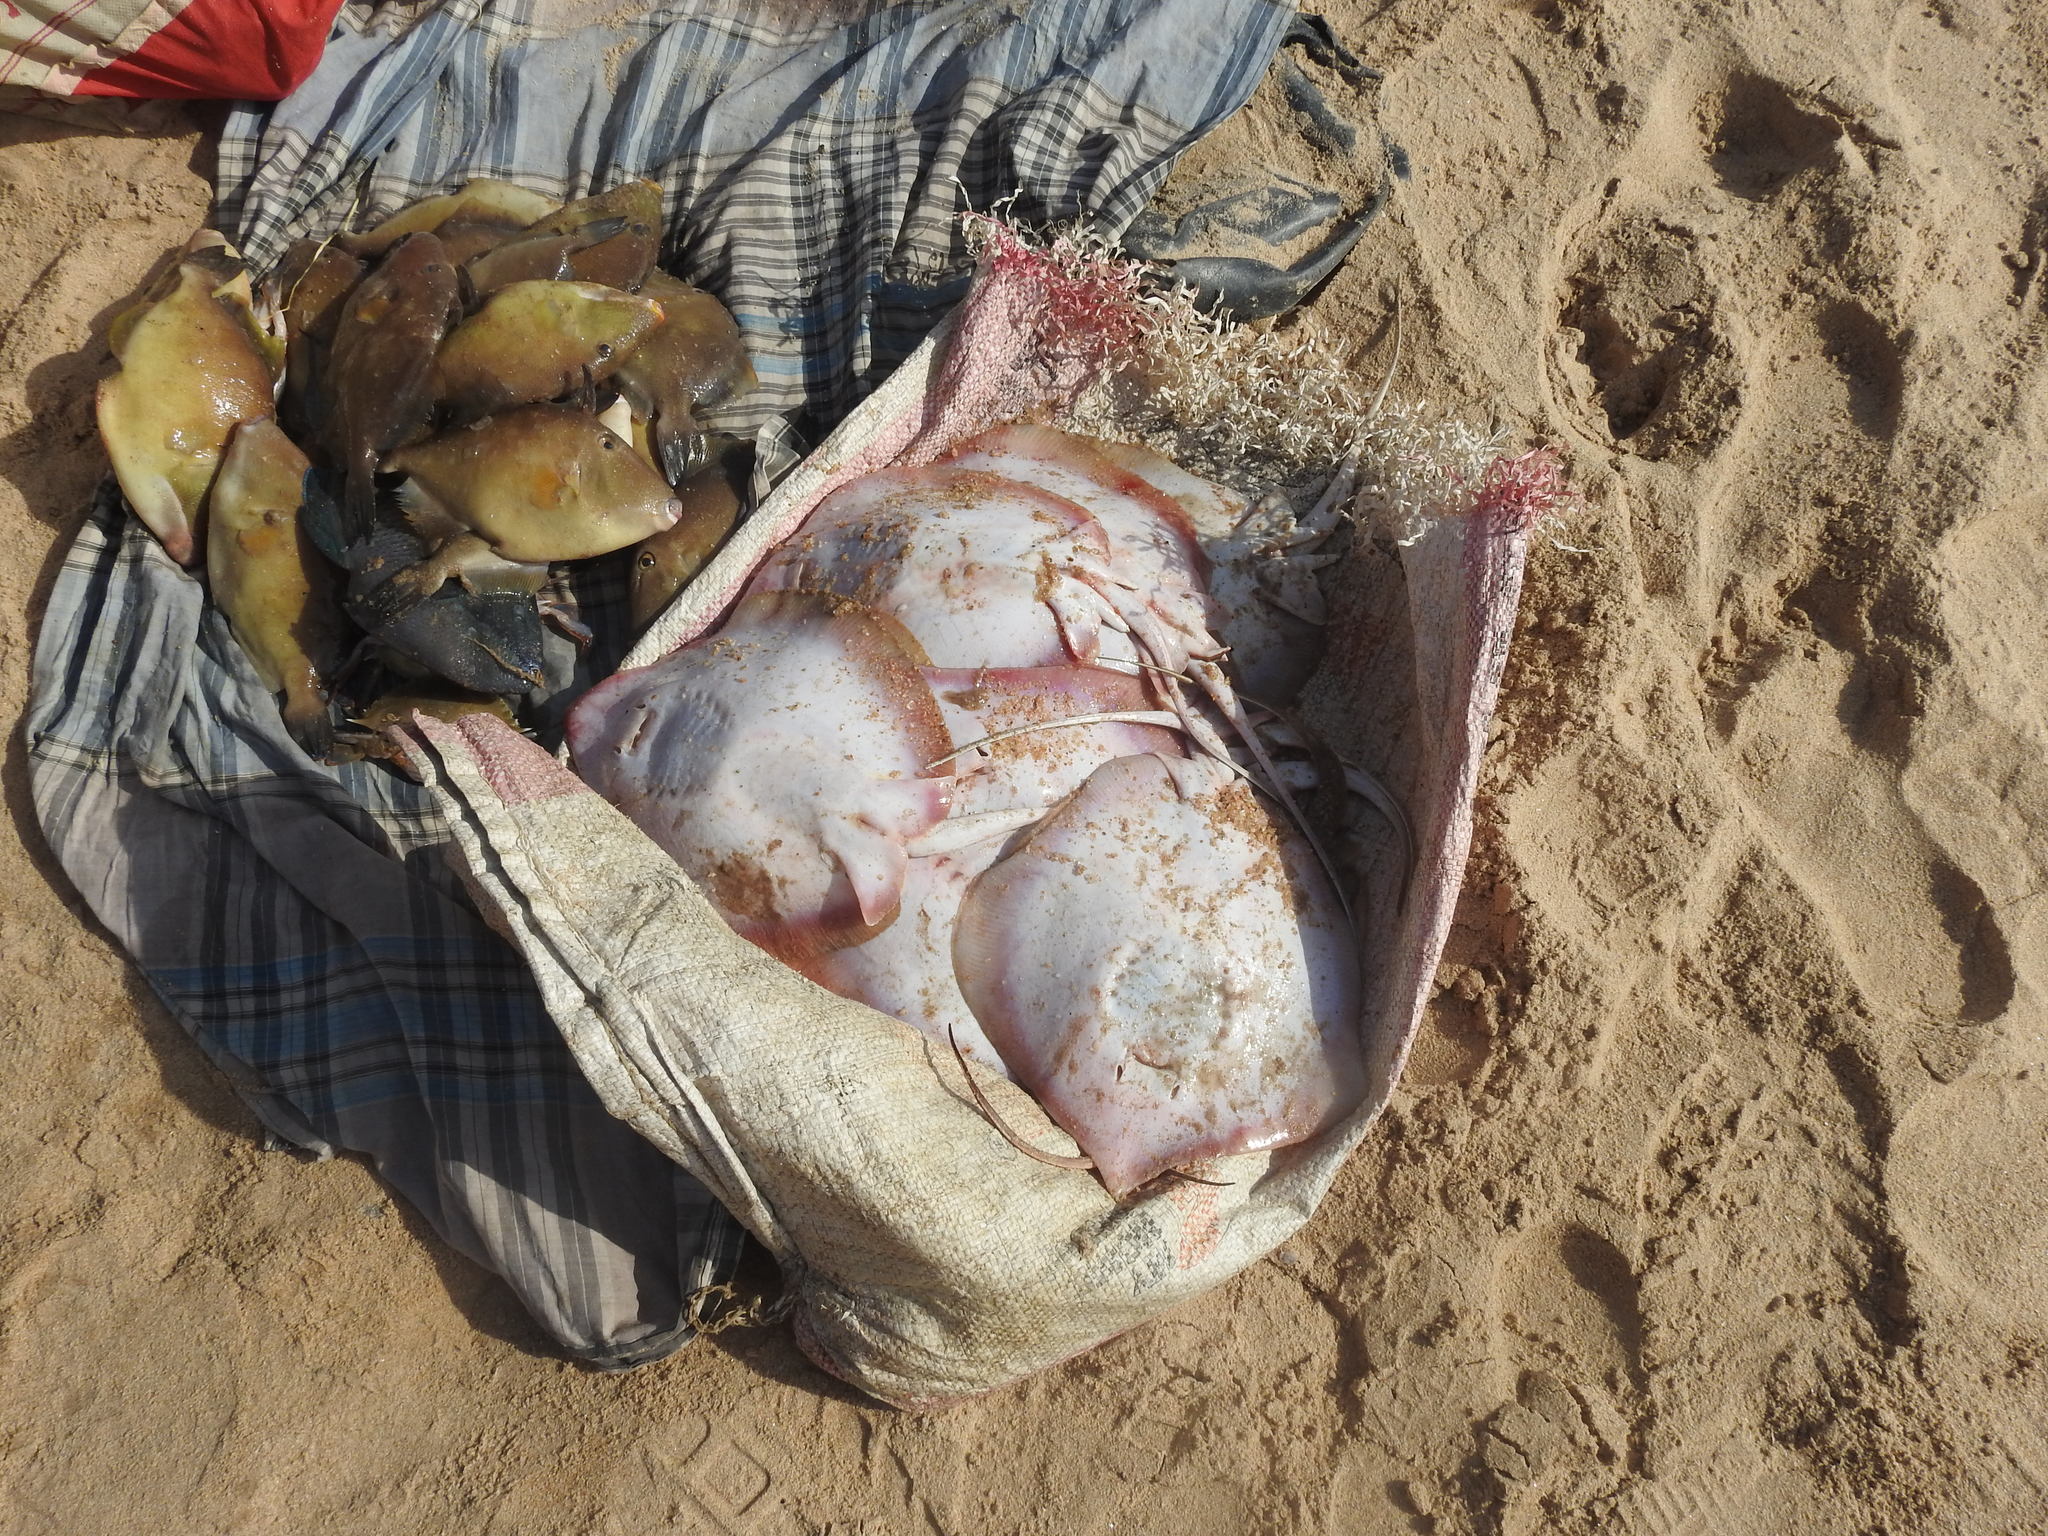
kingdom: Animalia
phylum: Chordata
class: Elasmobranchii
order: Myliobatiformes
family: Dasyatidae
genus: Brevitrygon
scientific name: Brevitrygon imbricata
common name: Scaly whipray
